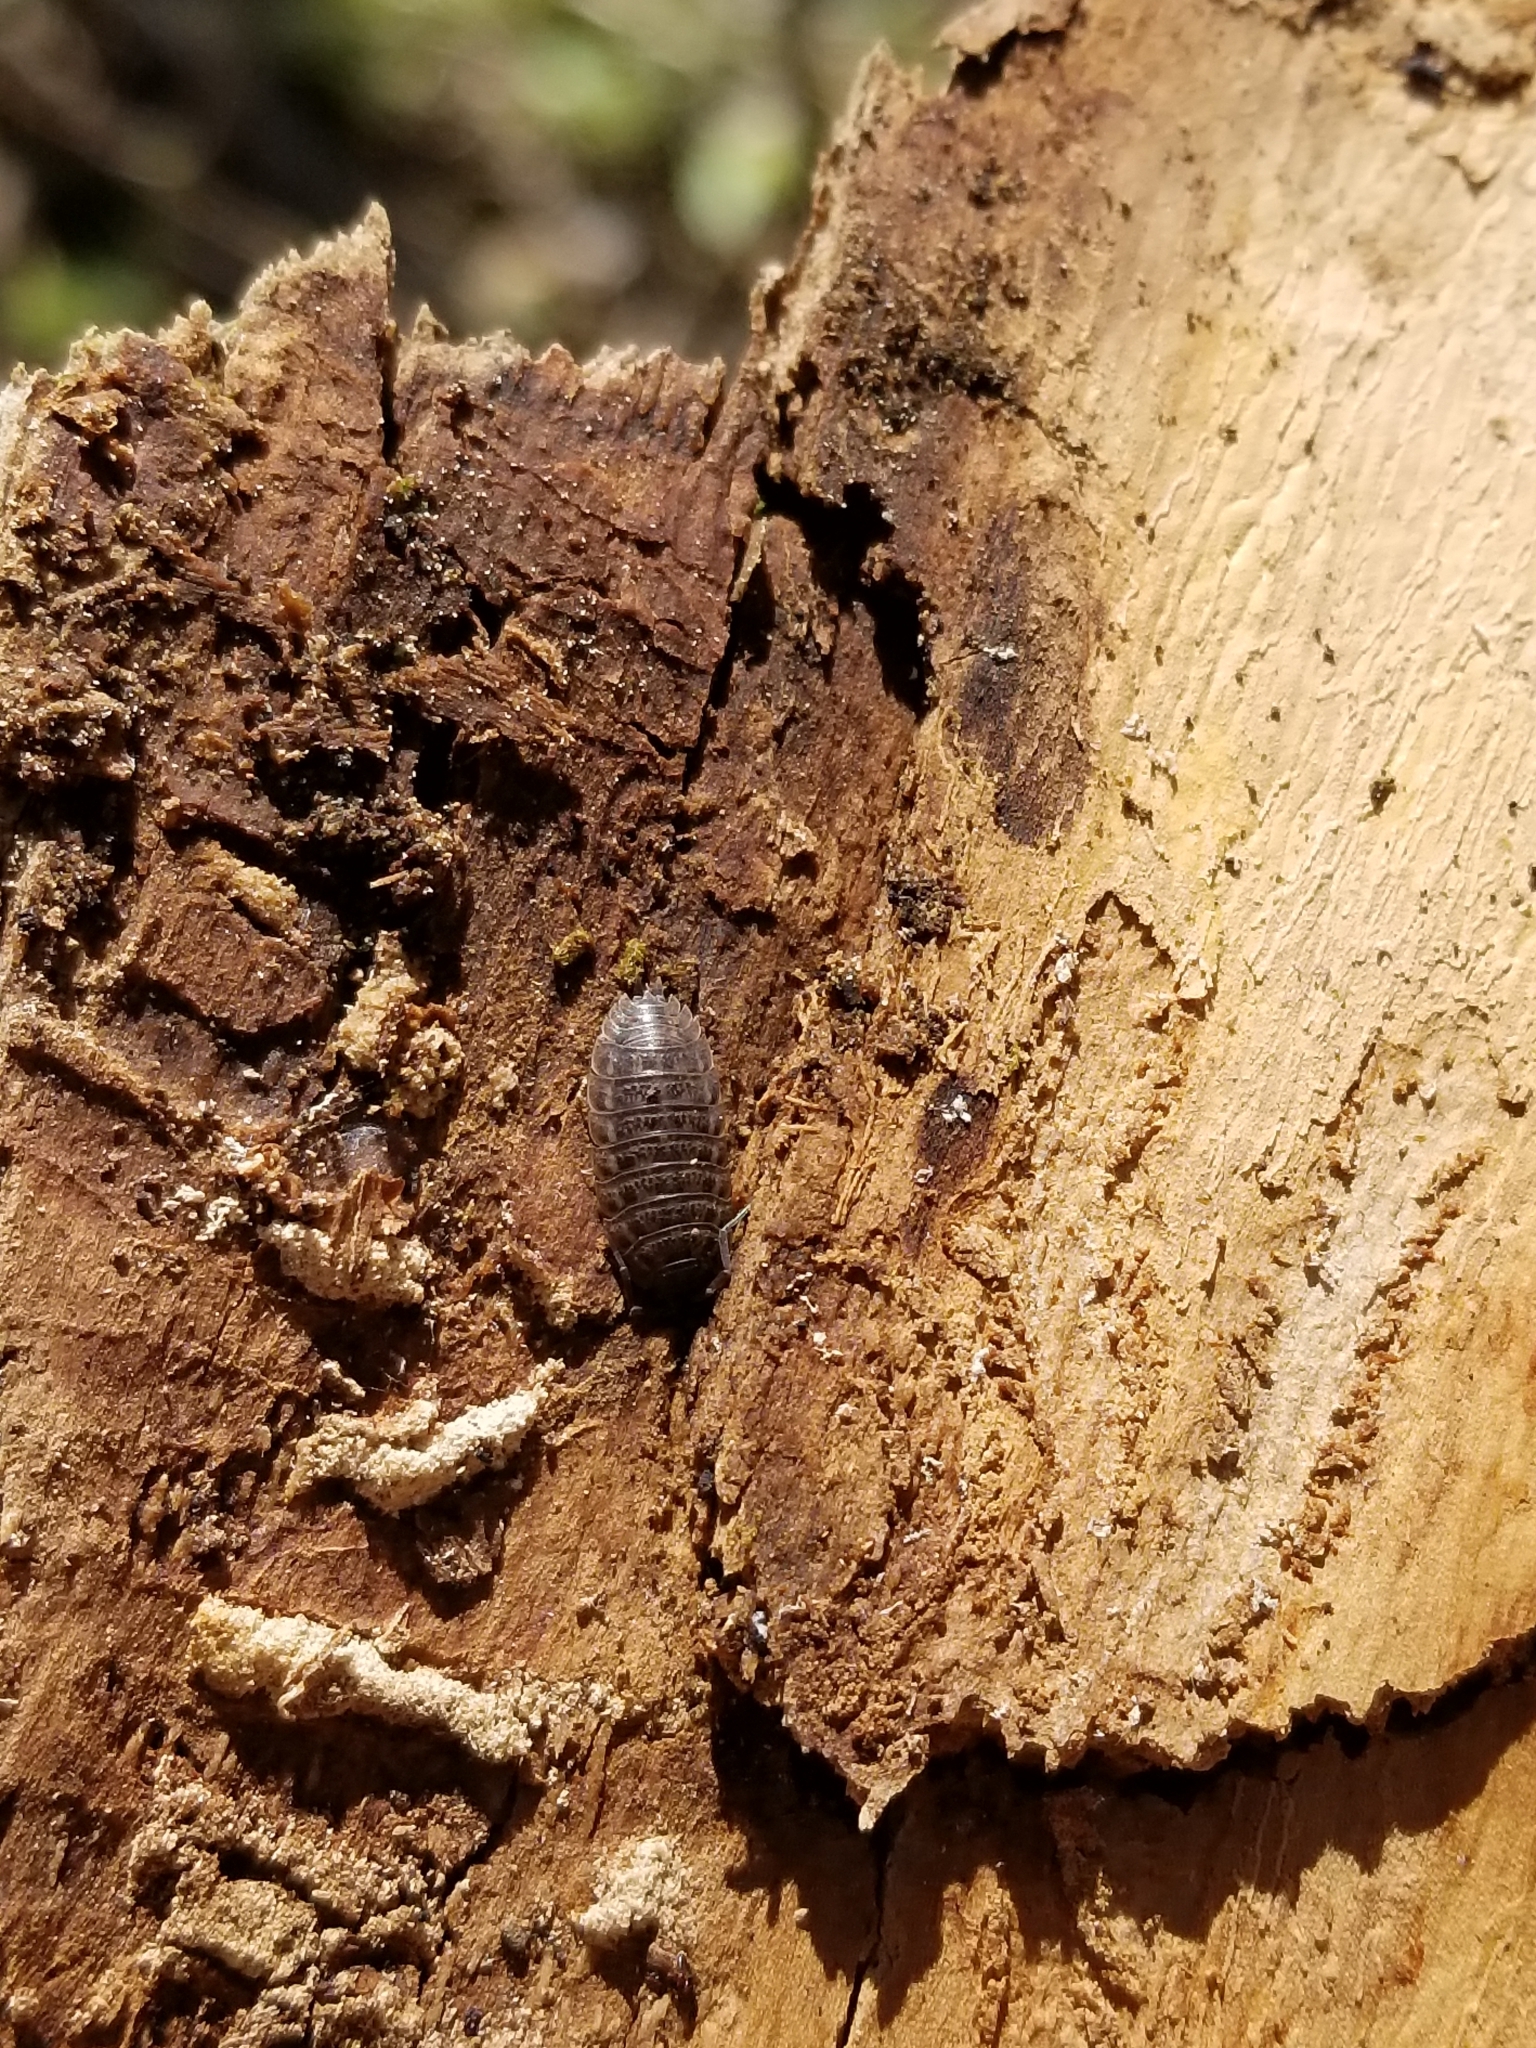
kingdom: Animalia
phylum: Arthropoda
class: Malacostraca
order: Isopoda
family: Trachelipodidae
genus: Trachelipus
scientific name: Trachelipus rathkii
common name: Isopod
